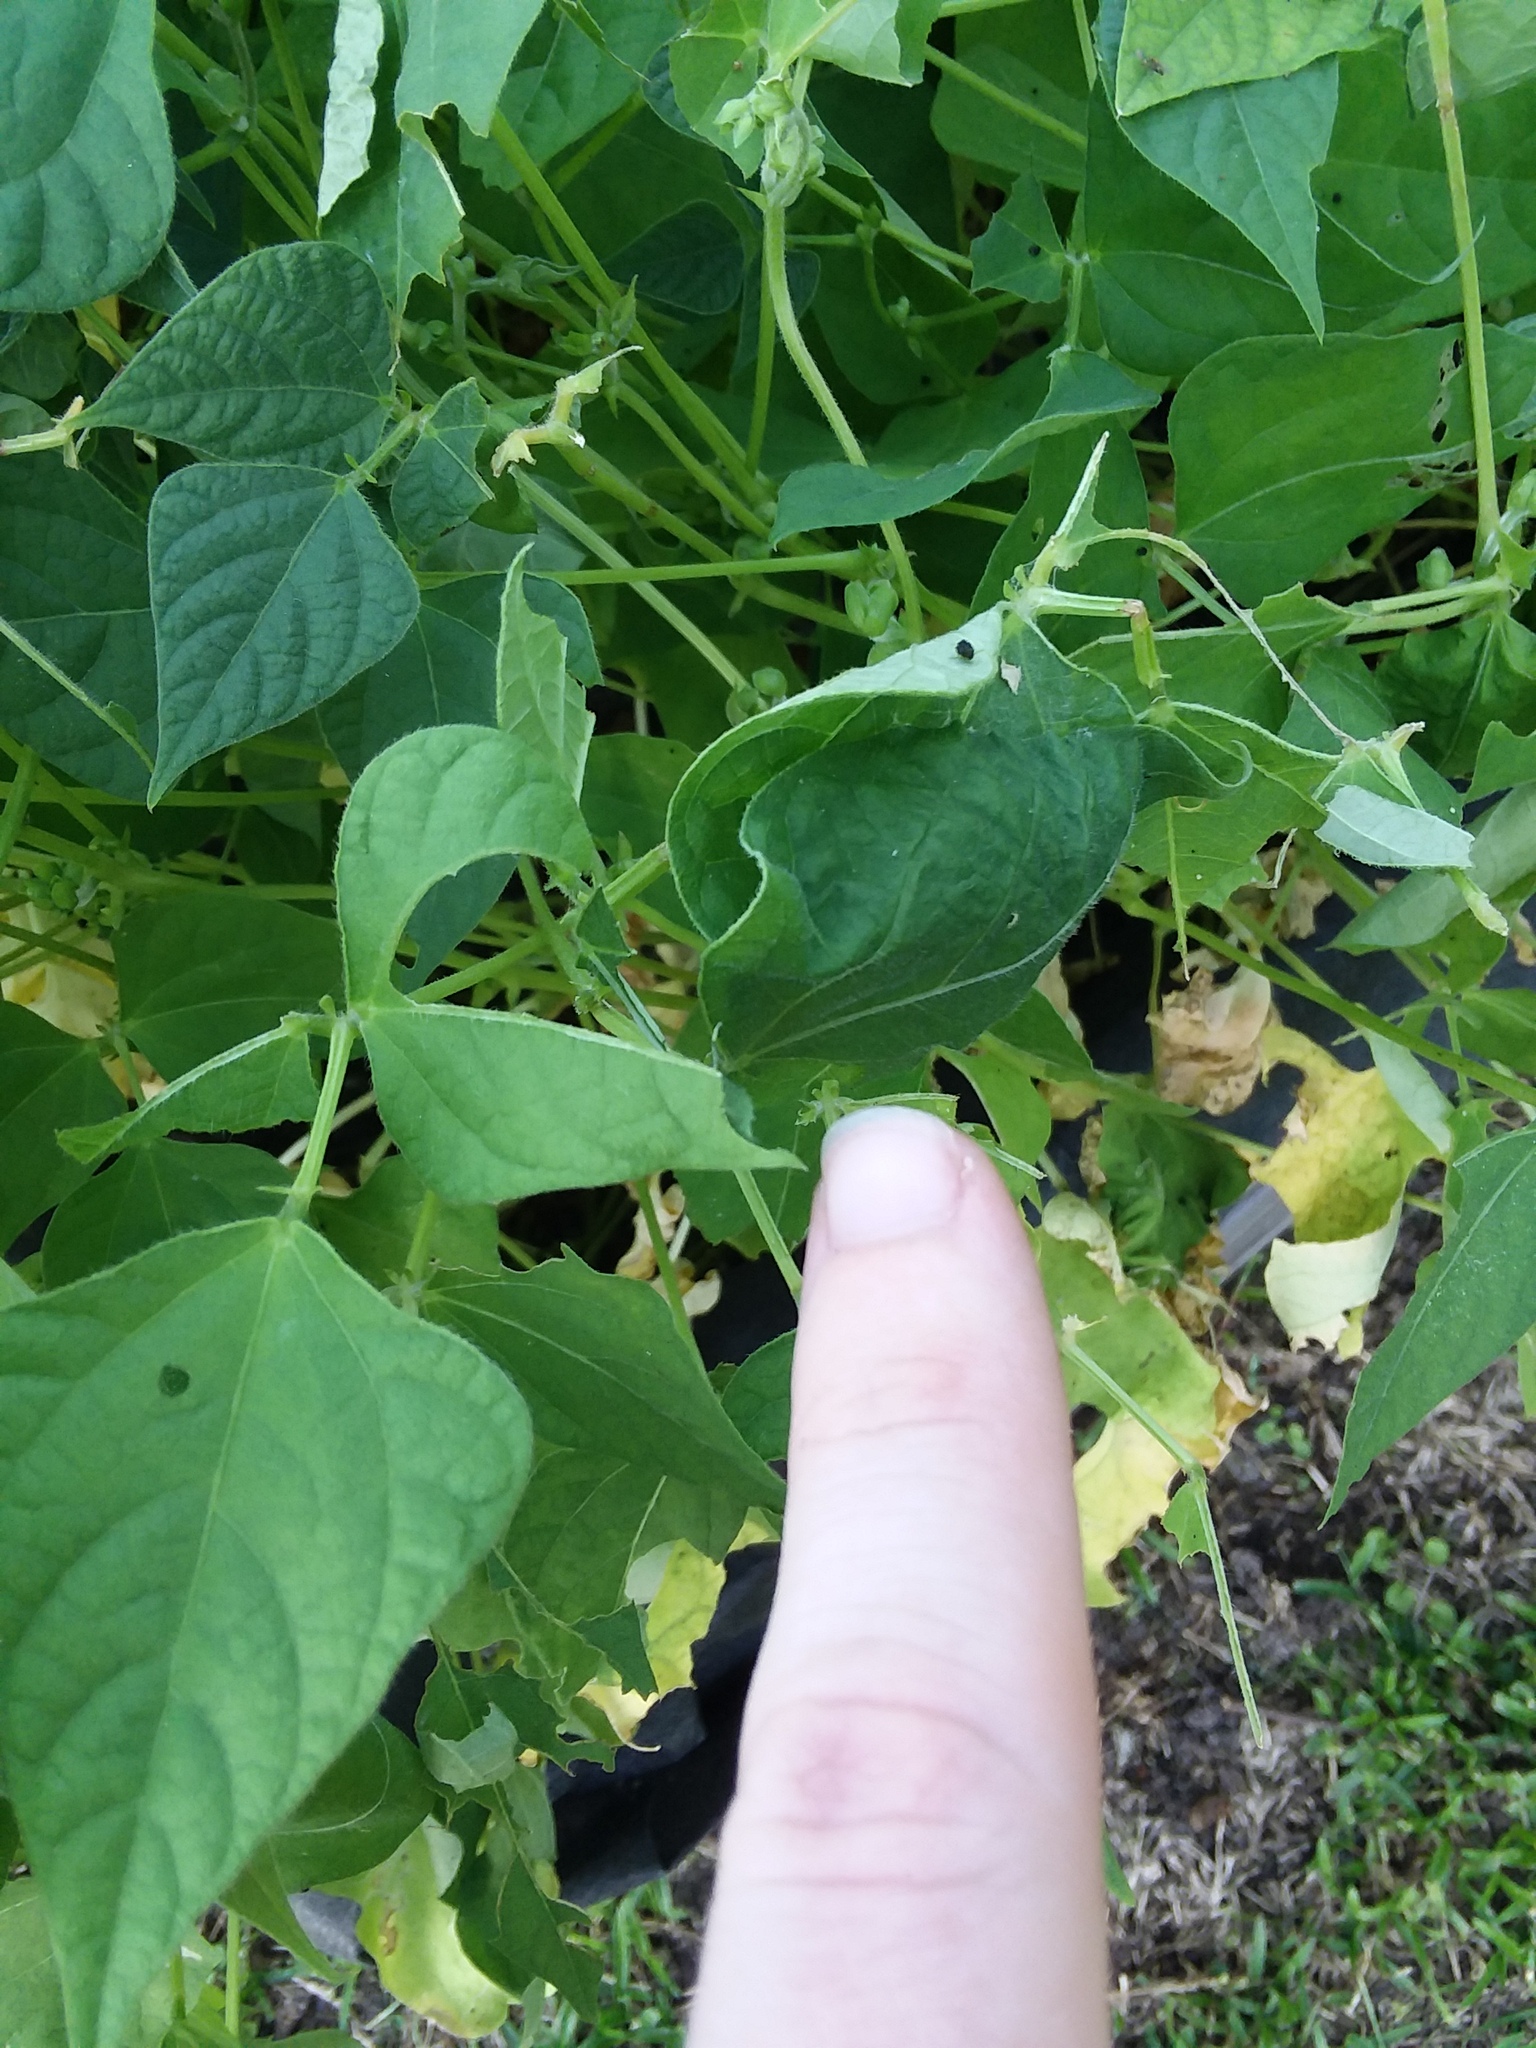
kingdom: Animalia
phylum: Arthropoda
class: Insecta
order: Lepidoptera
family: Hesperiidae
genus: Urbanus
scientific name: Urbanus proteus
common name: Long-tailed skipper
